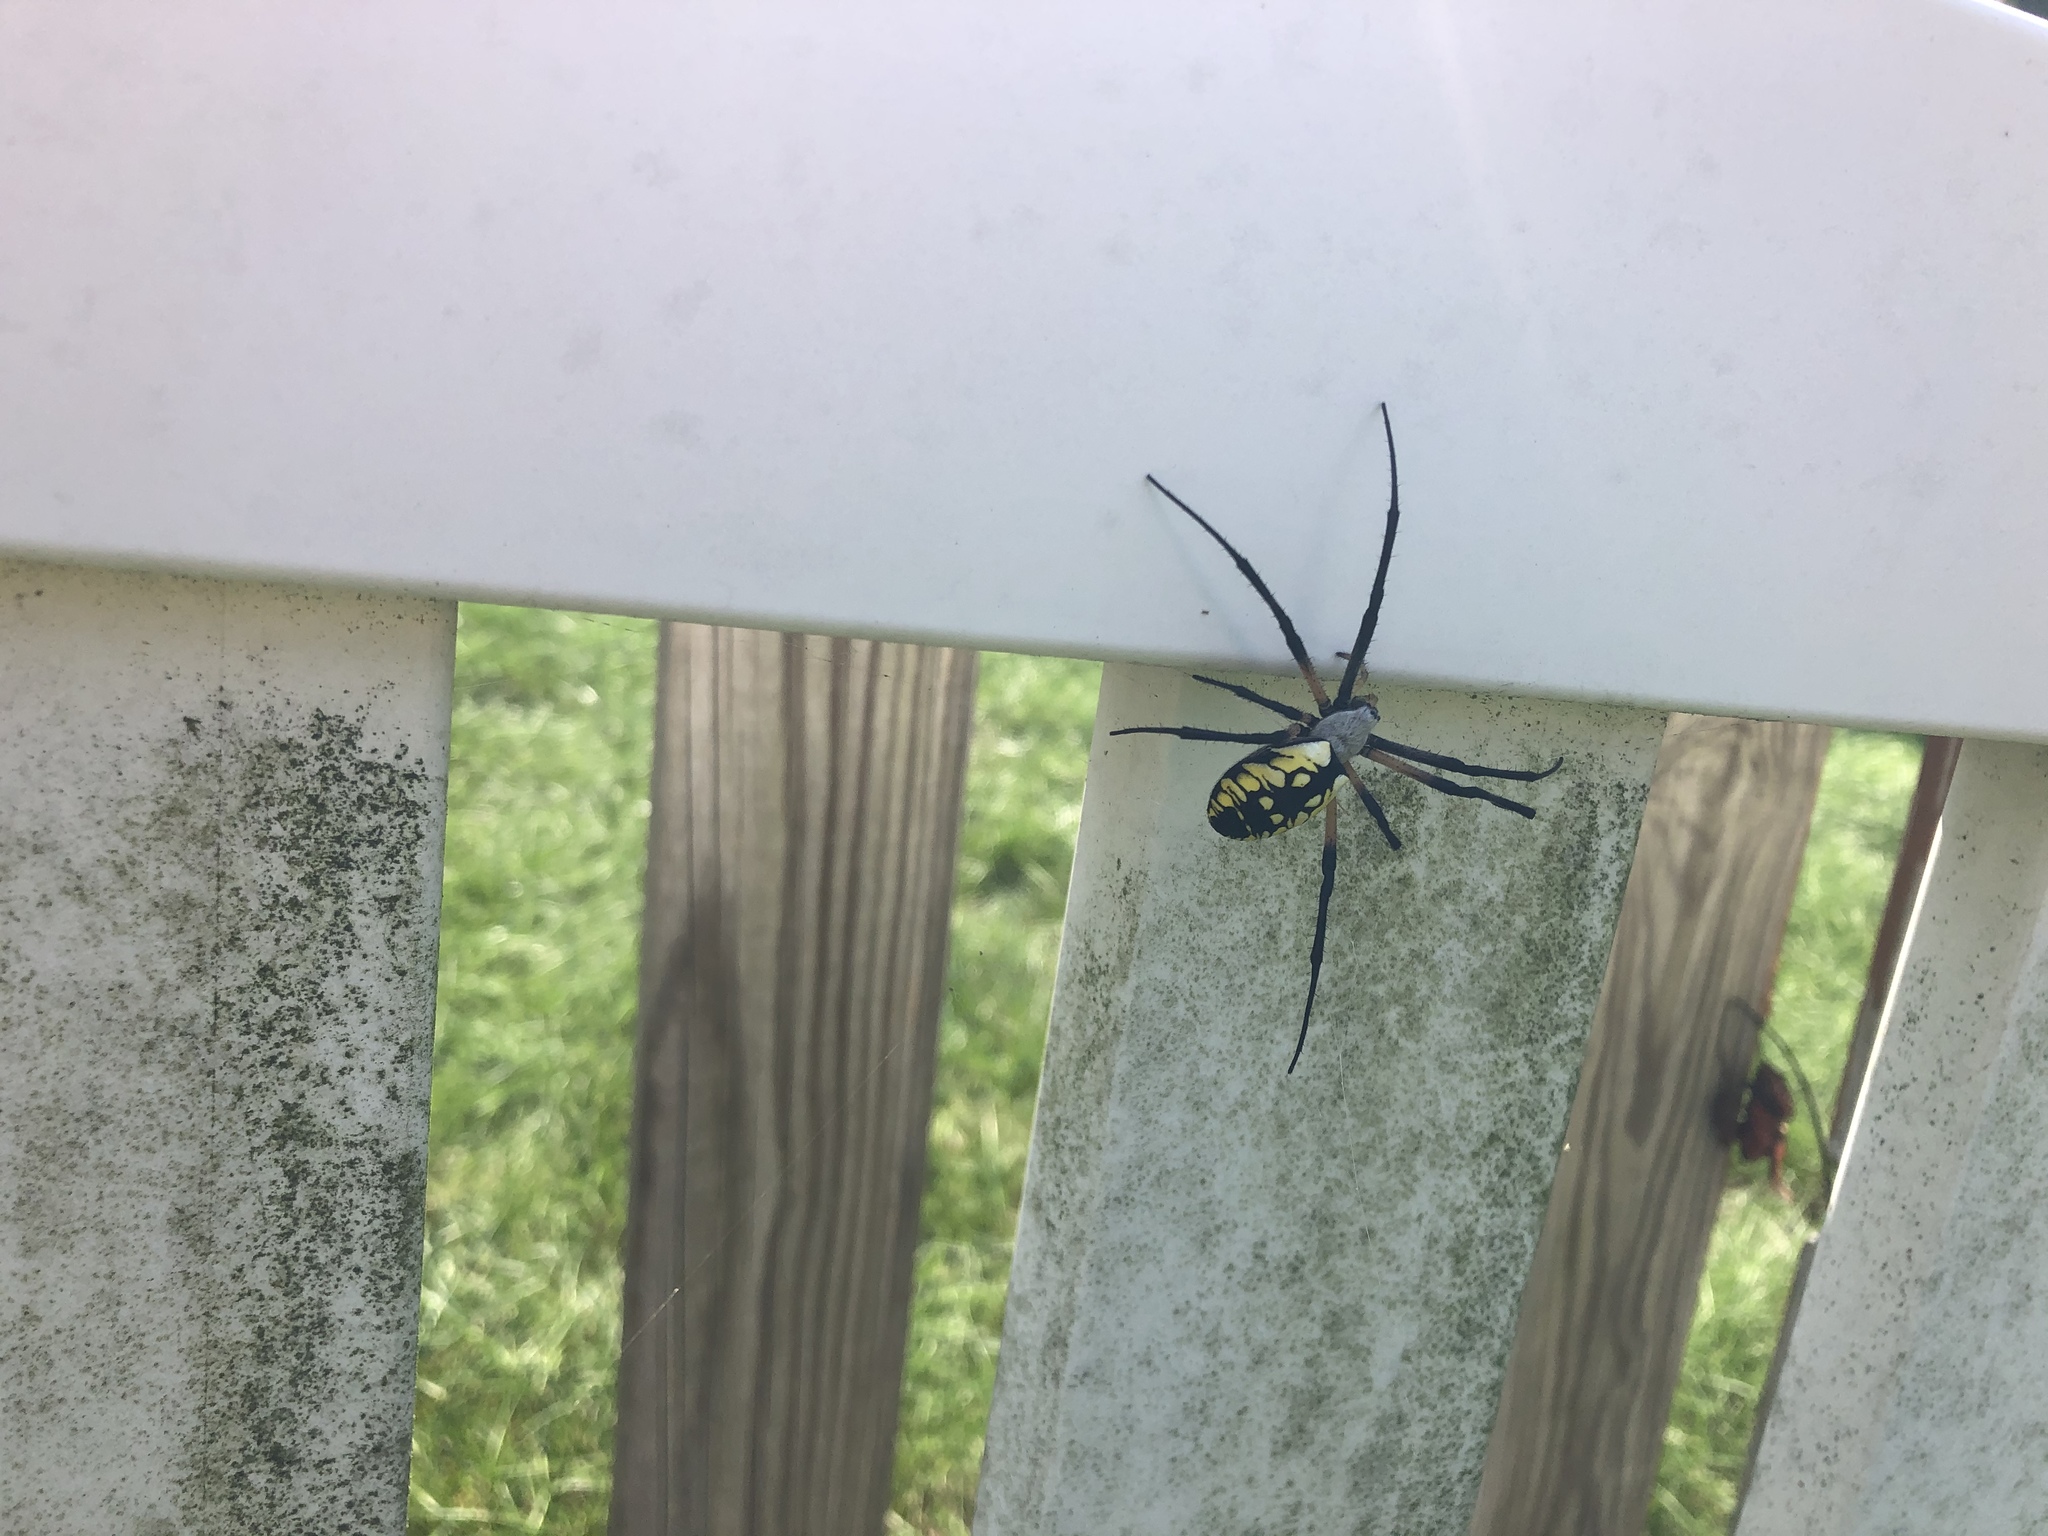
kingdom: Animalia
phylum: Arthropoda
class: Arachnida
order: Araneae
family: Araneidae
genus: Argiope
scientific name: Argiope aurantia
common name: Orb weavers
